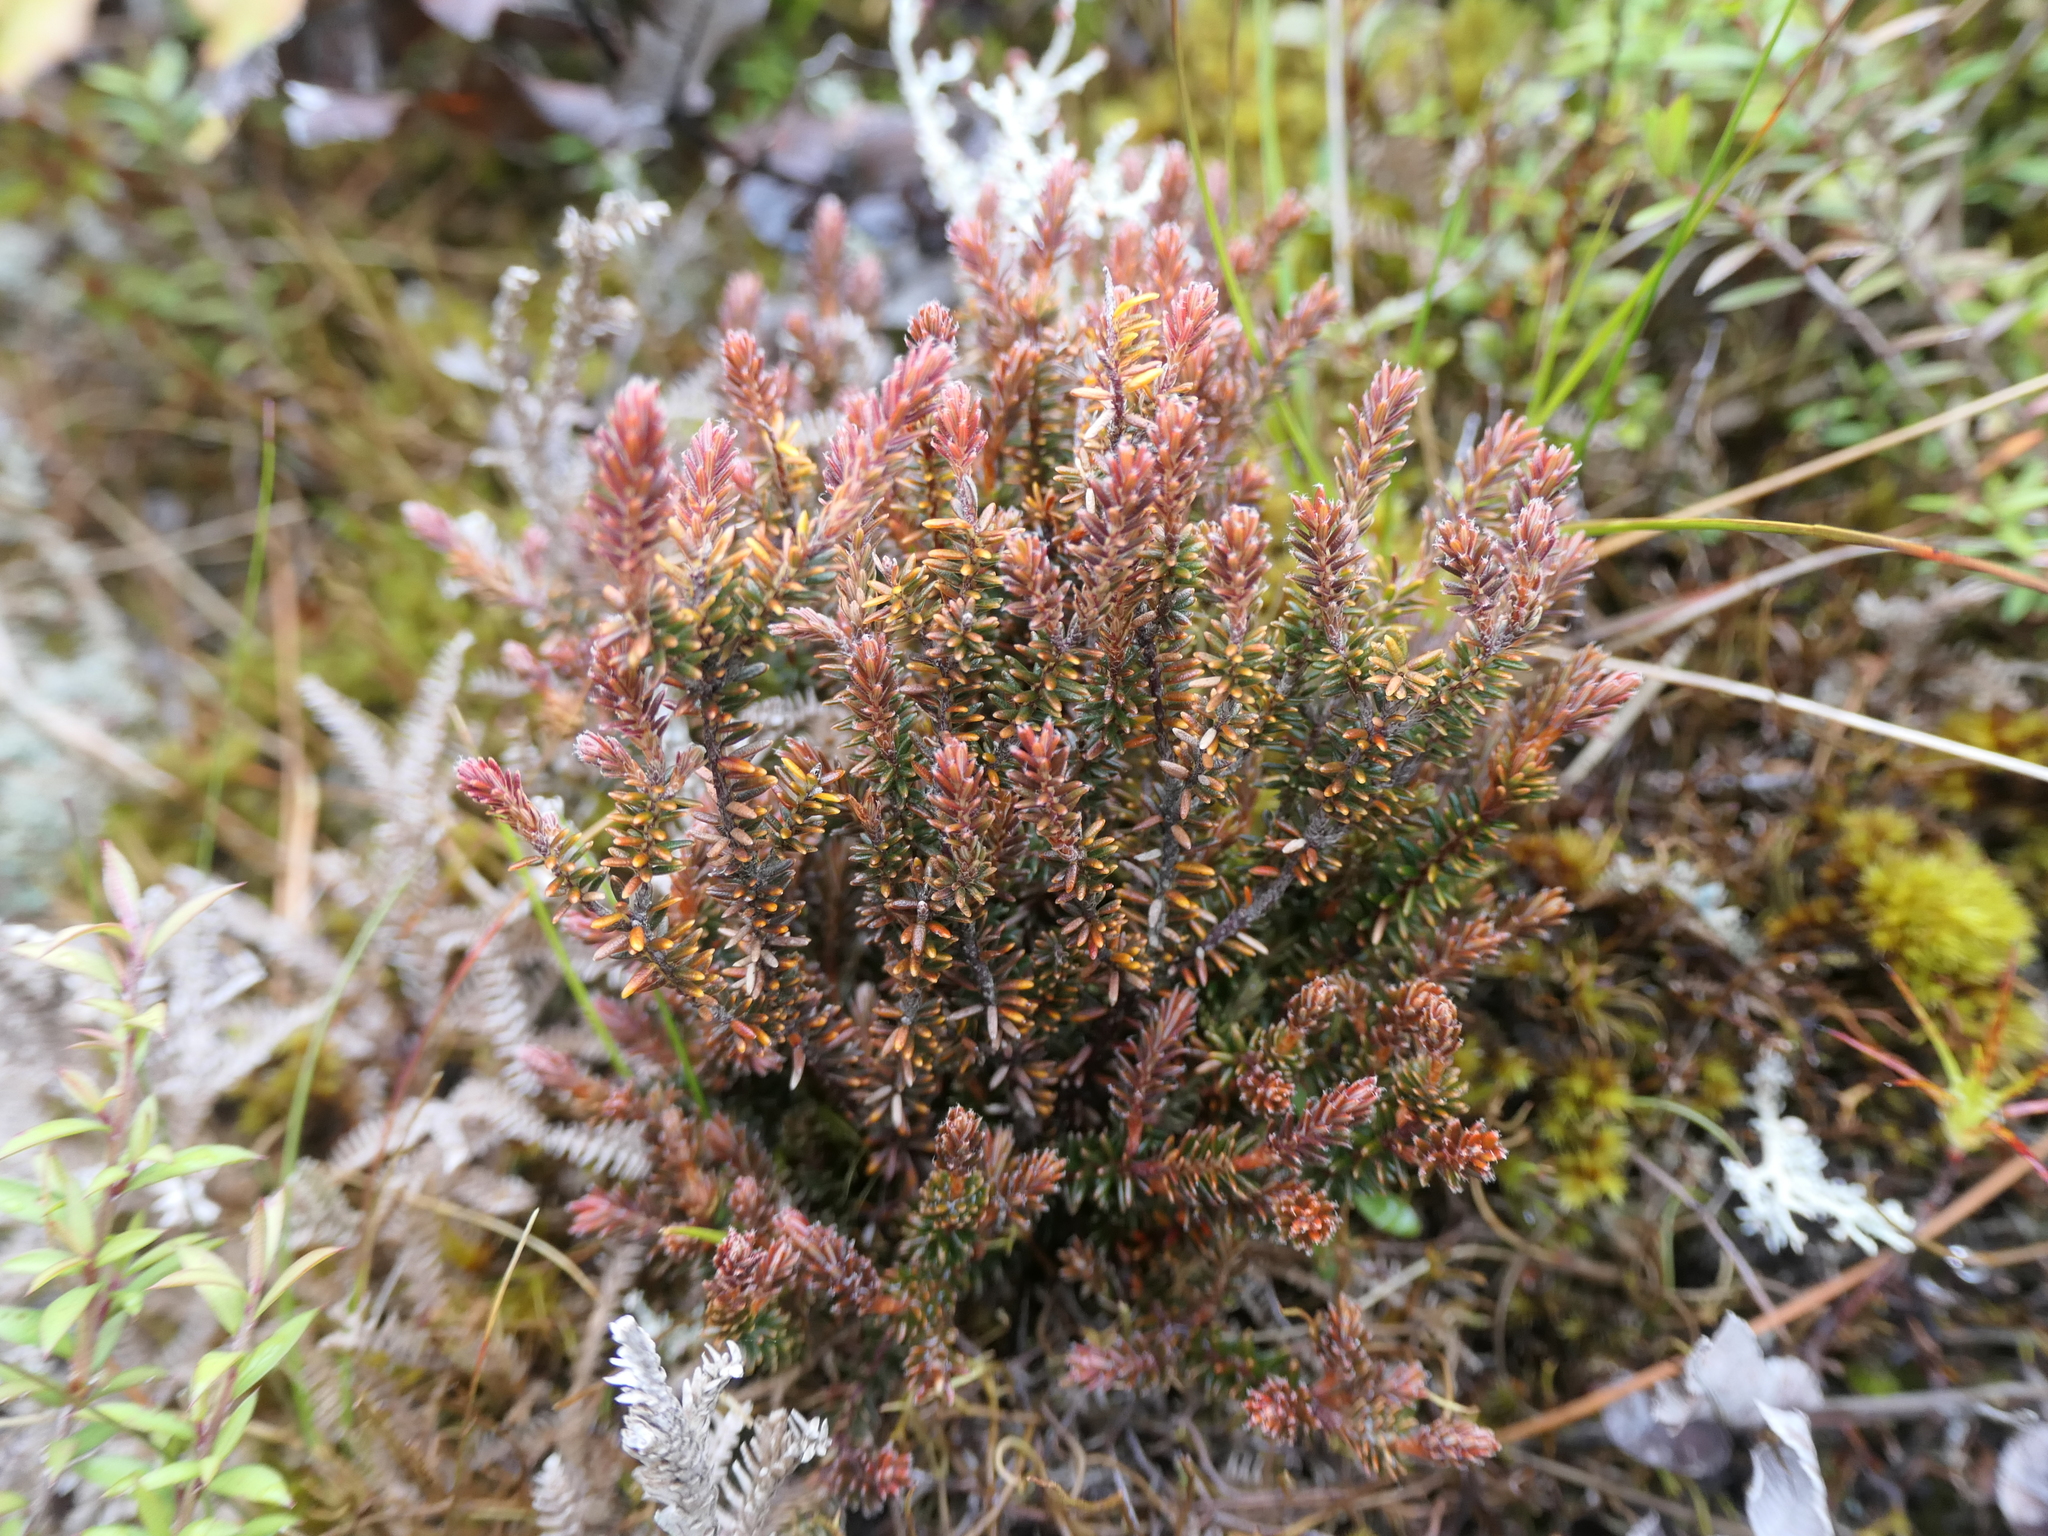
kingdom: Plantae
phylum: Tracheophyta
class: Magnoliopsida
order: Ericales
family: Ericaceae
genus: Androstoma
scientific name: Androstoma empetrifolia
